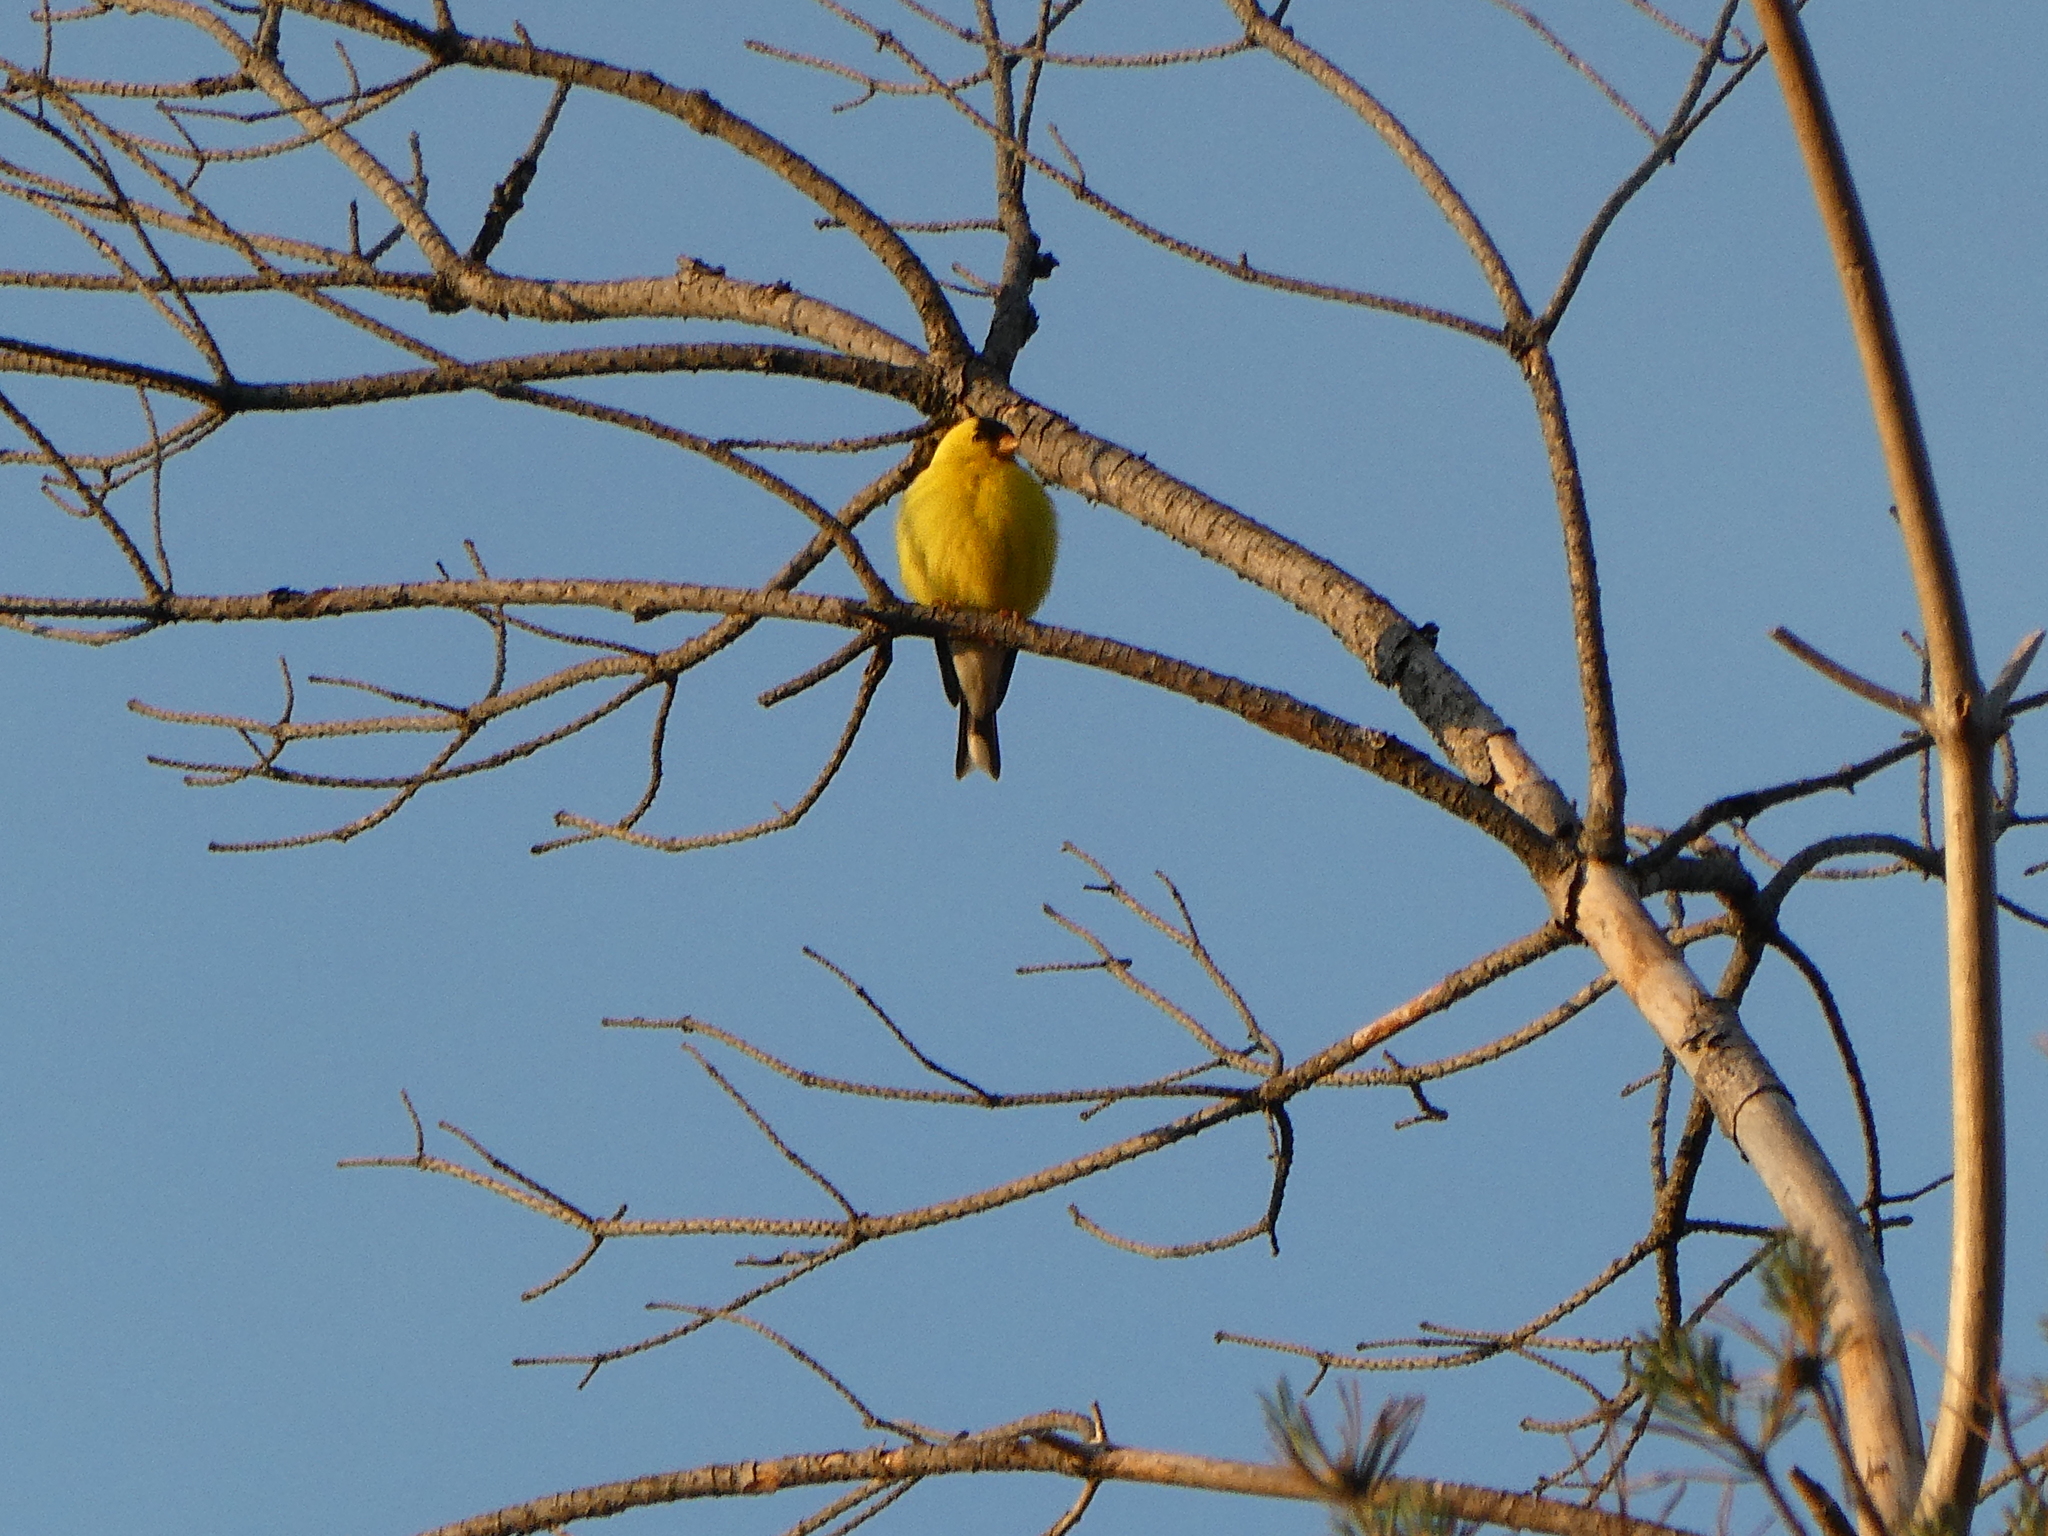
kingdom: Animalia
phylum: Chordata
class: Aves
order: Passeriformes
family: Fringillidae
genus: Spinus
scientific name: Spinus tristis
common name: American goldfinch
